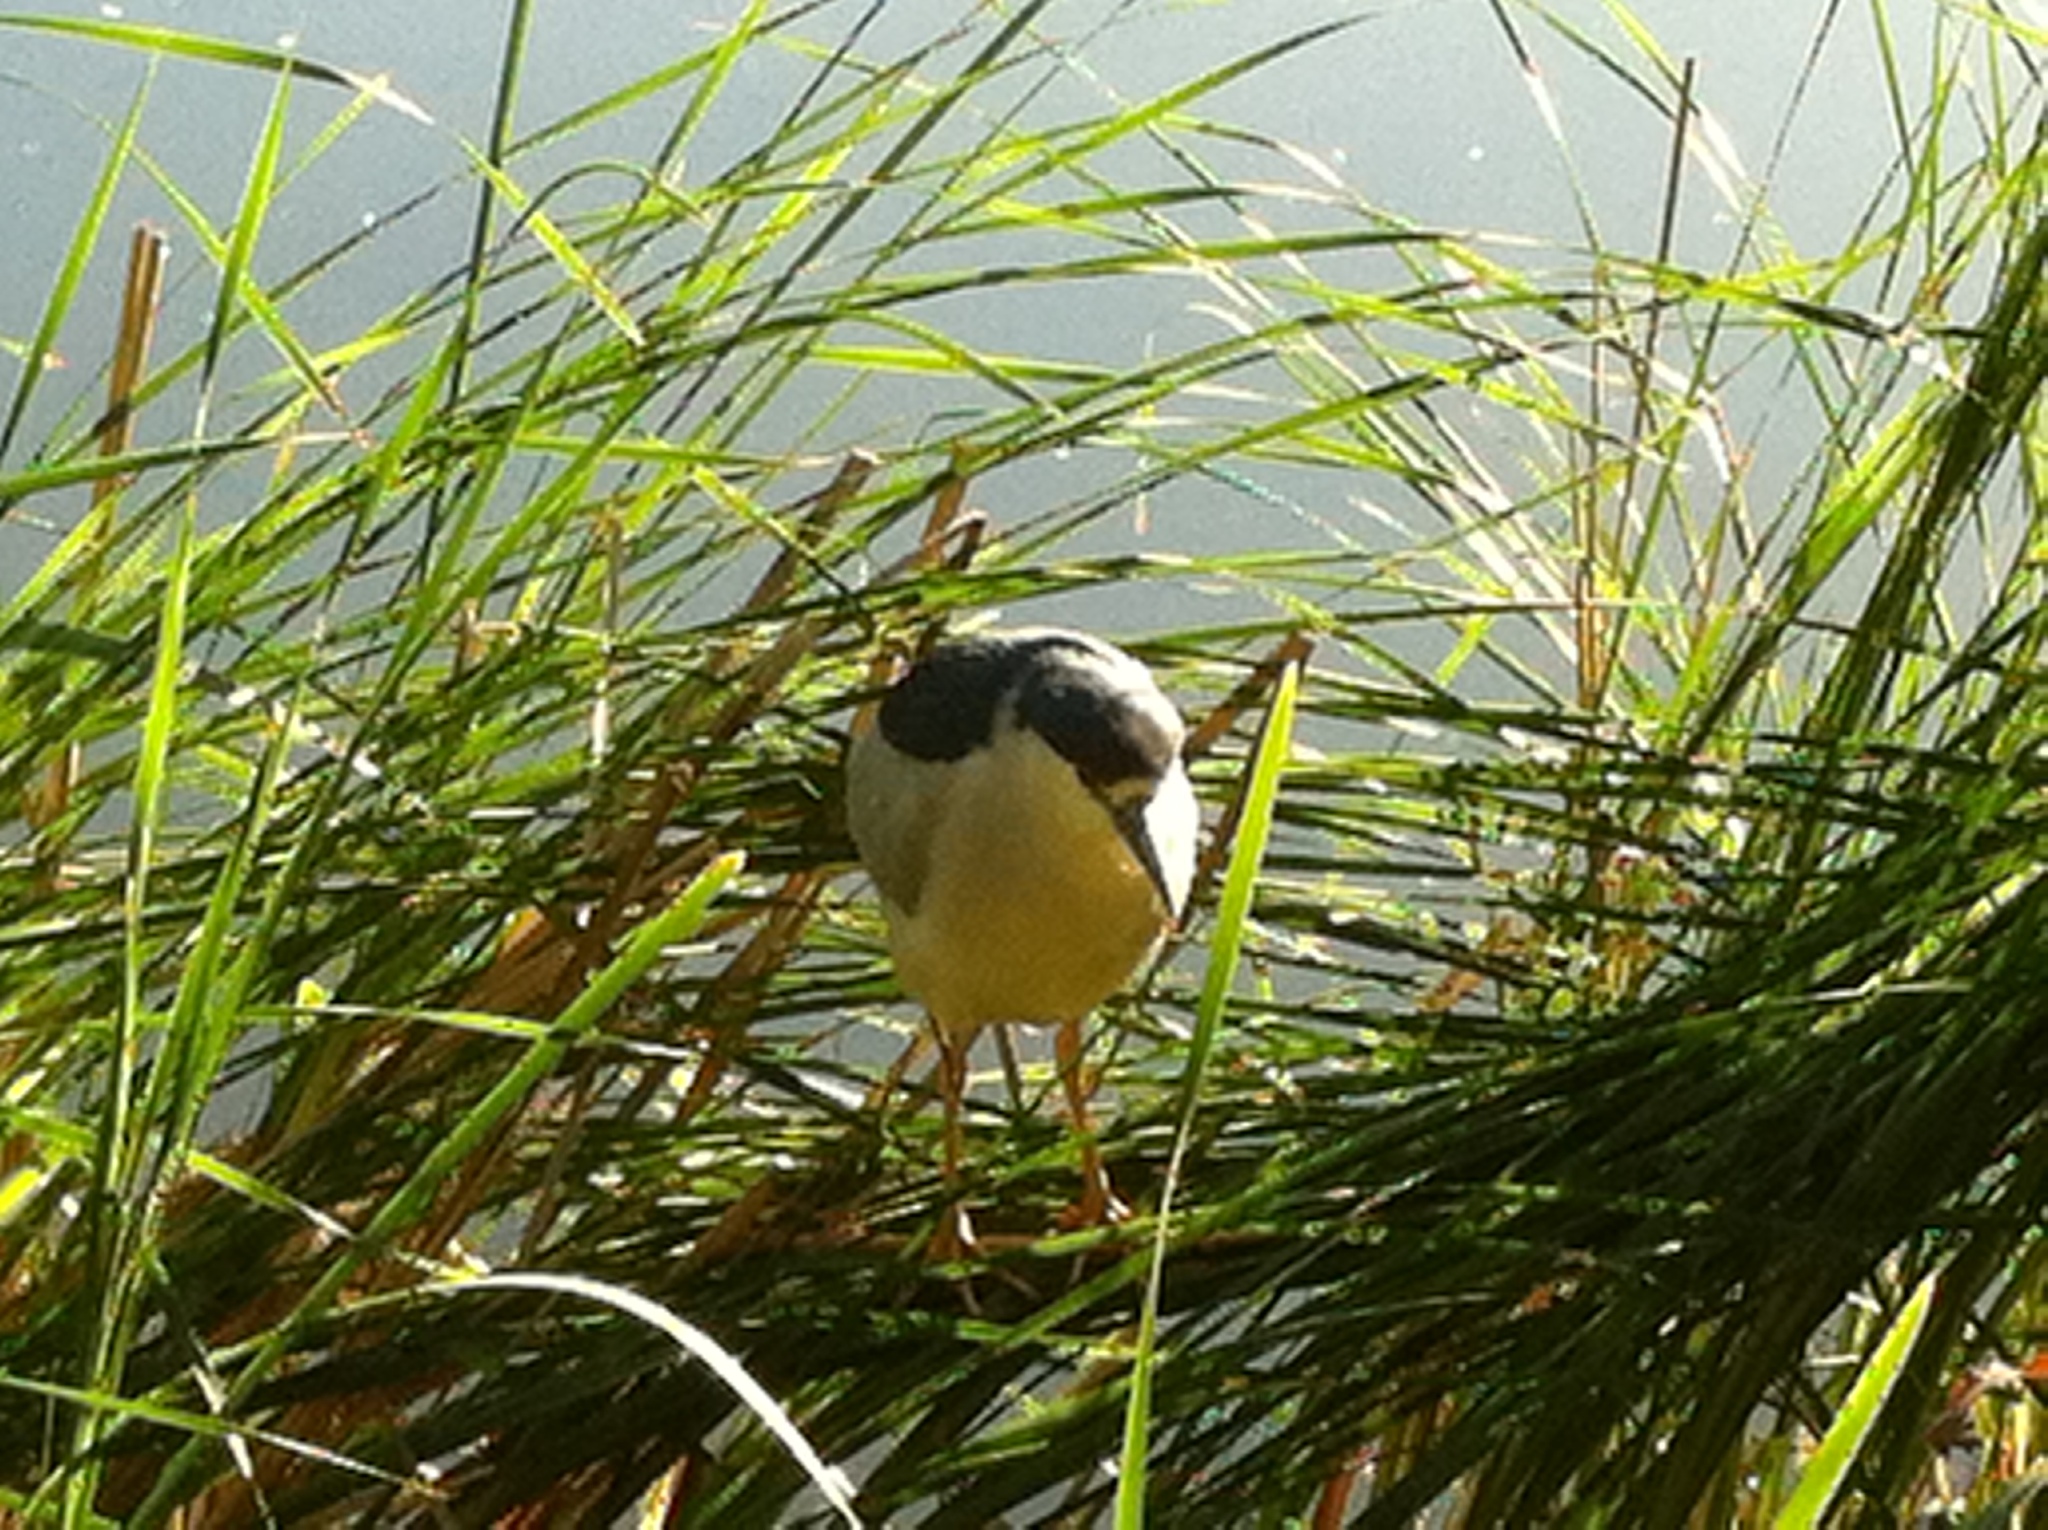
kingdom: Animalia
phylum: Chordata
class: Aves
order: Pelecaniformes
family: Ardeidae
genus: Nycticorax
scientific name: Nycticorax nycticorax
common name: Black-crowned night heron
